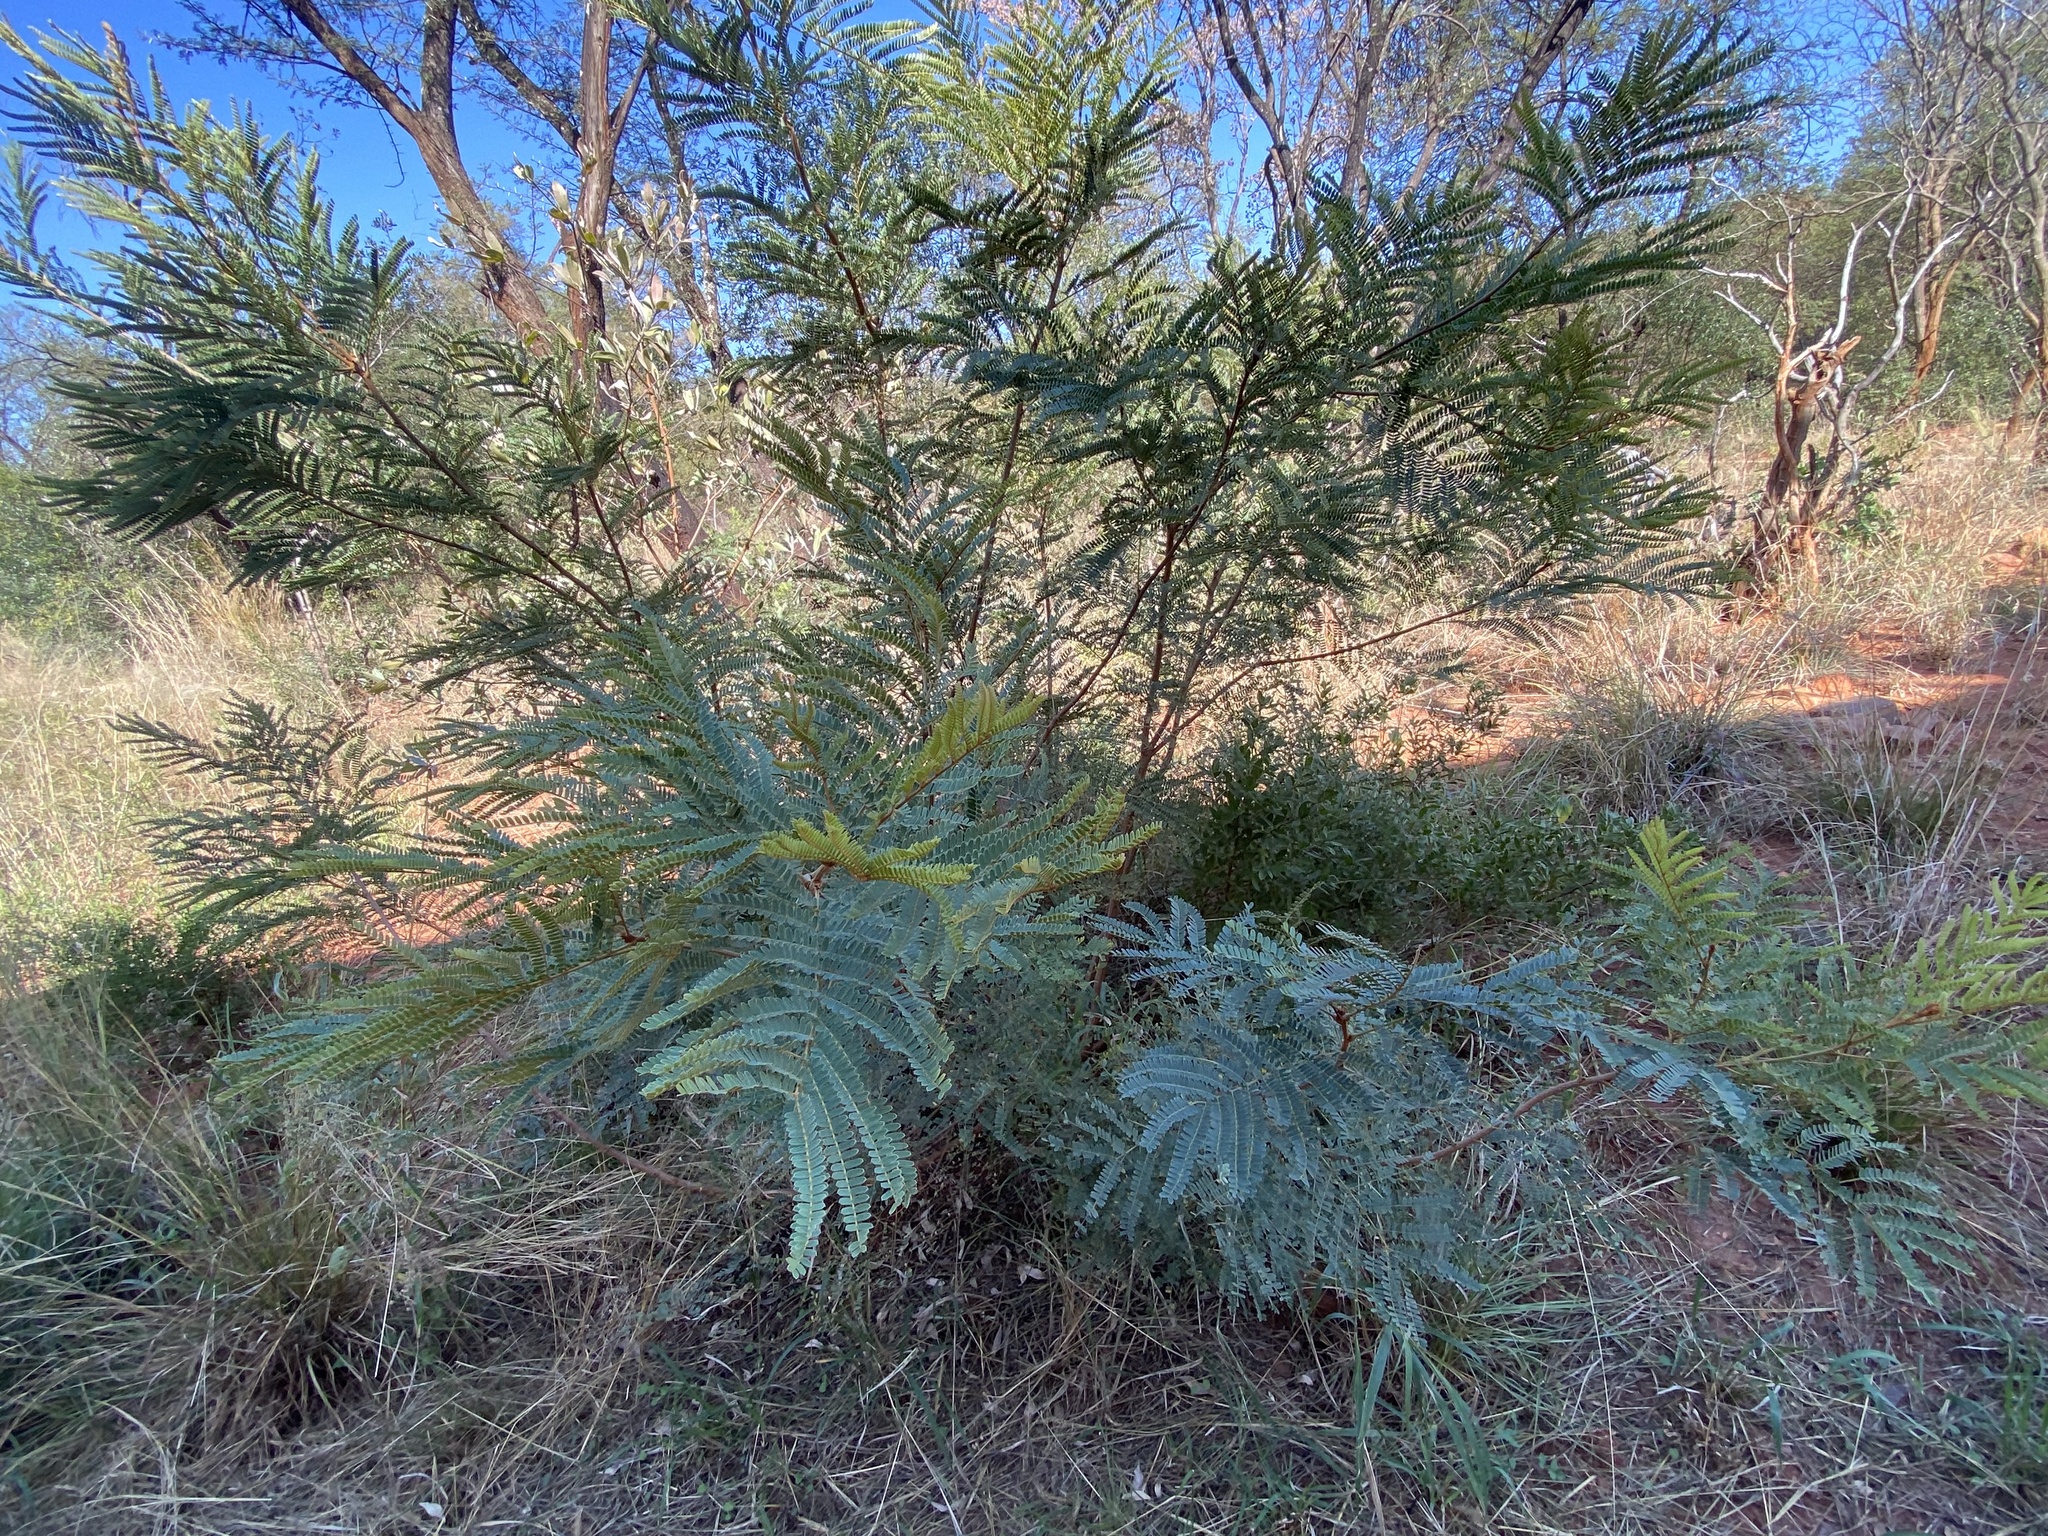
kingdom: Plantae
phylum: Tracheophyta
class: Magnoliopsida
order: Fabales
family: Fabaceae
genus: Peltophorum
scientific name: Peltophorum africanum
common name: African black wattle
